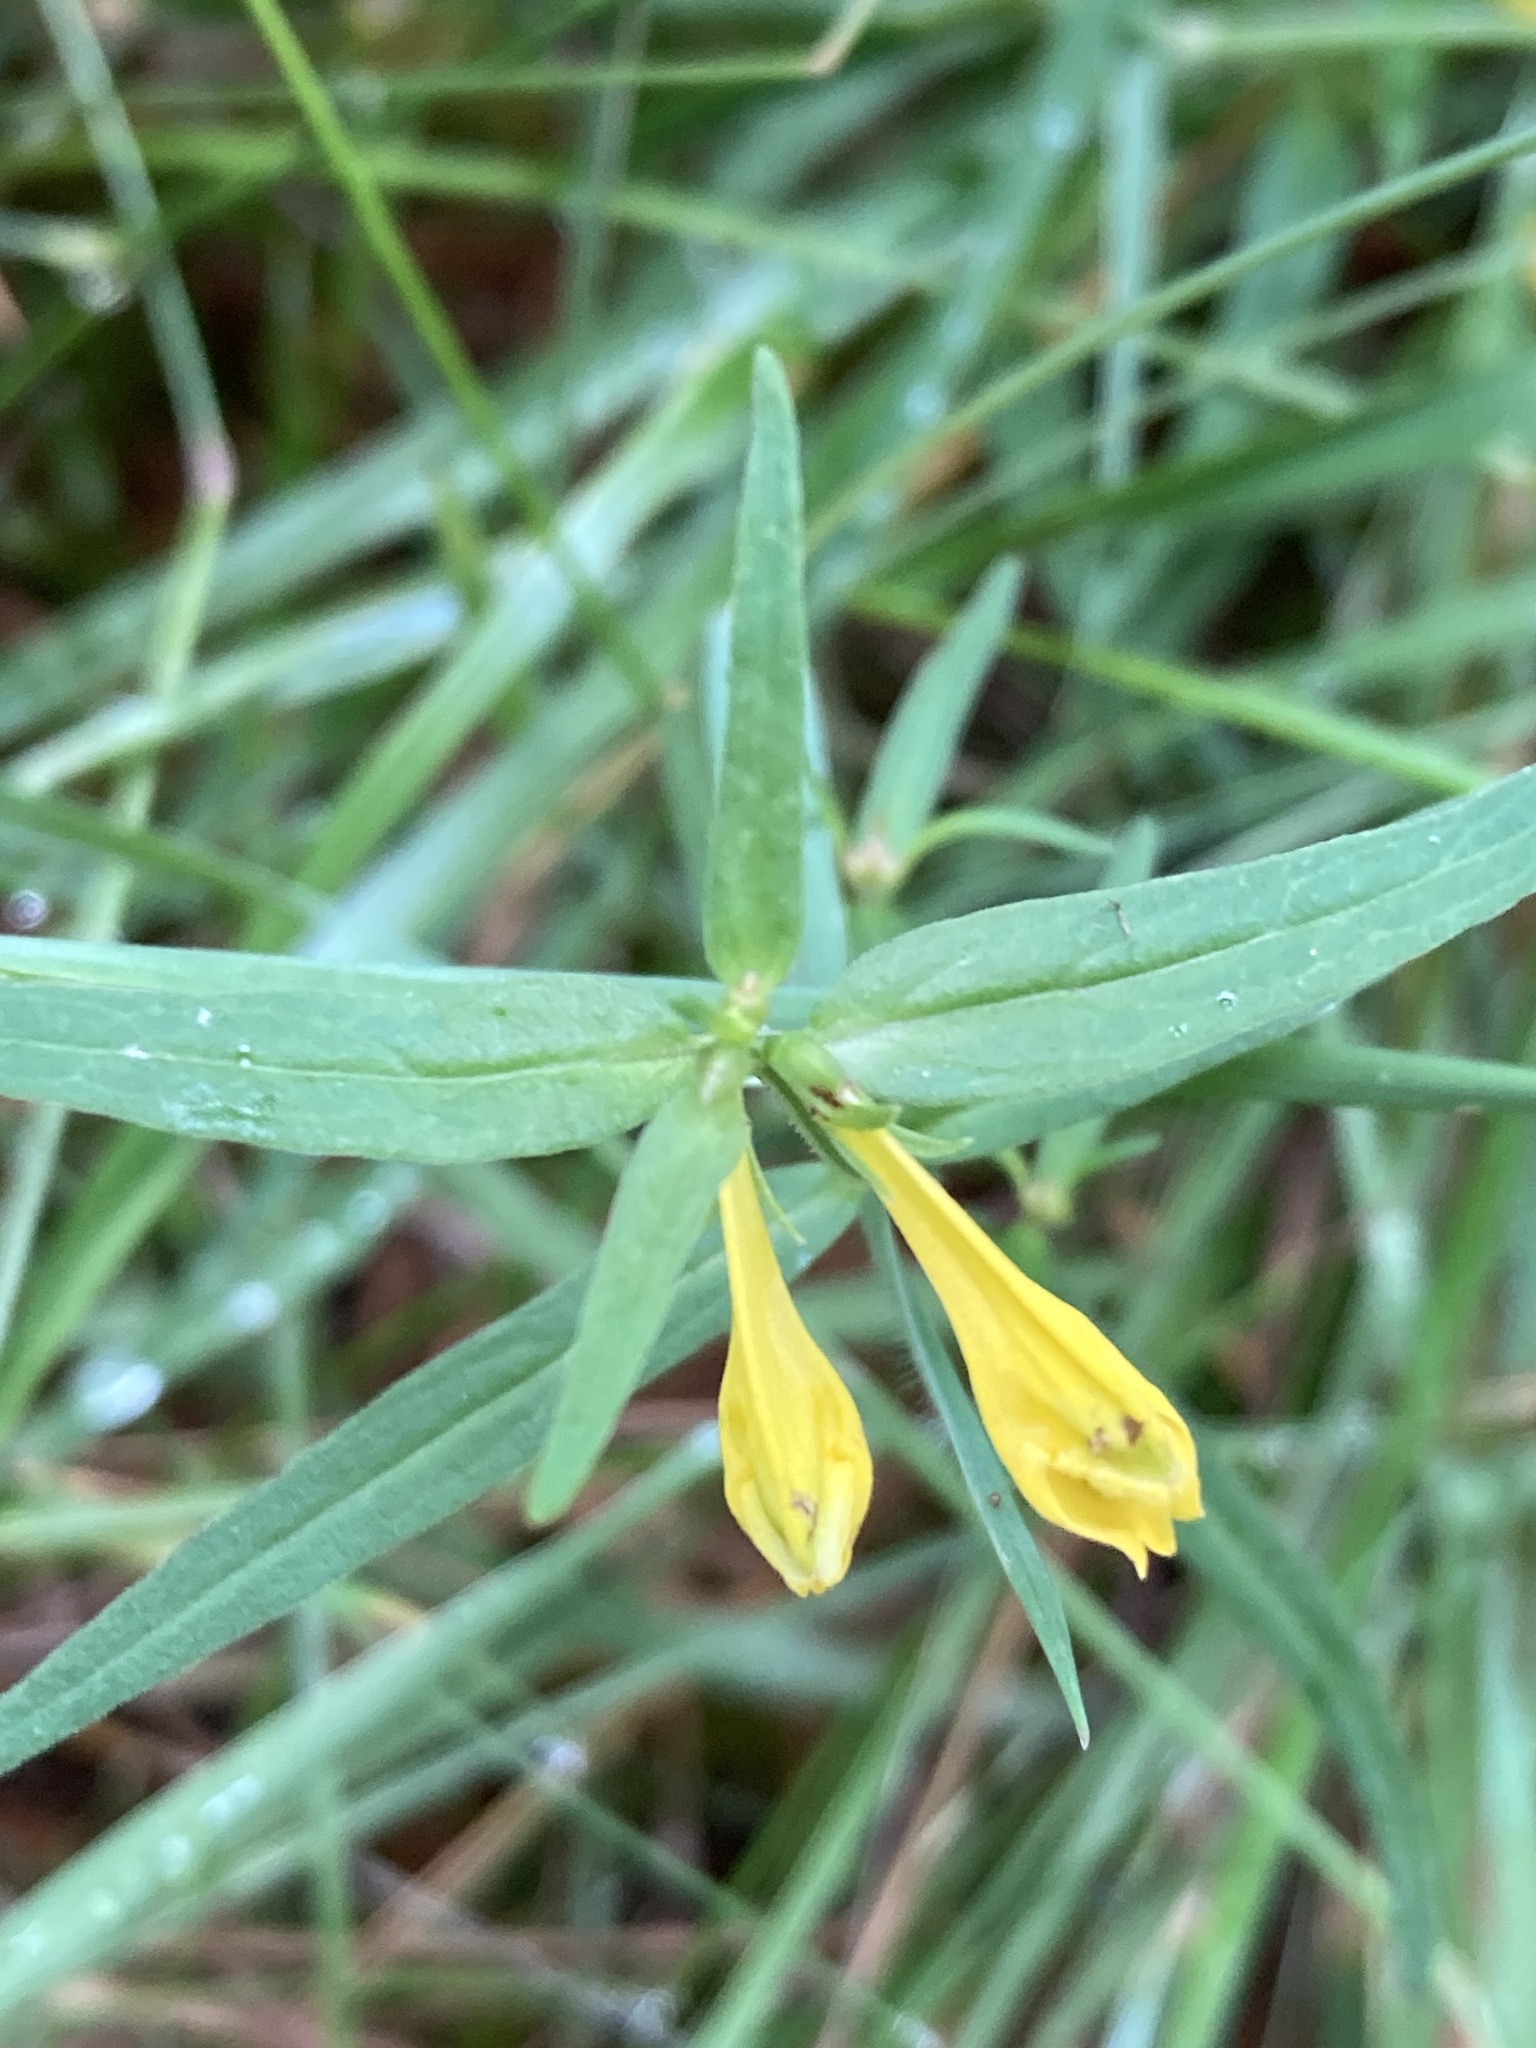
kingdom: Plantae
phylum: Tracheophyta
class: Magnoliopsida
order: Lamiales
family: Orobanchaceae
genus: Melampyrum
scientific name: Melampyrum pratense
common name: Common cow-wheat
